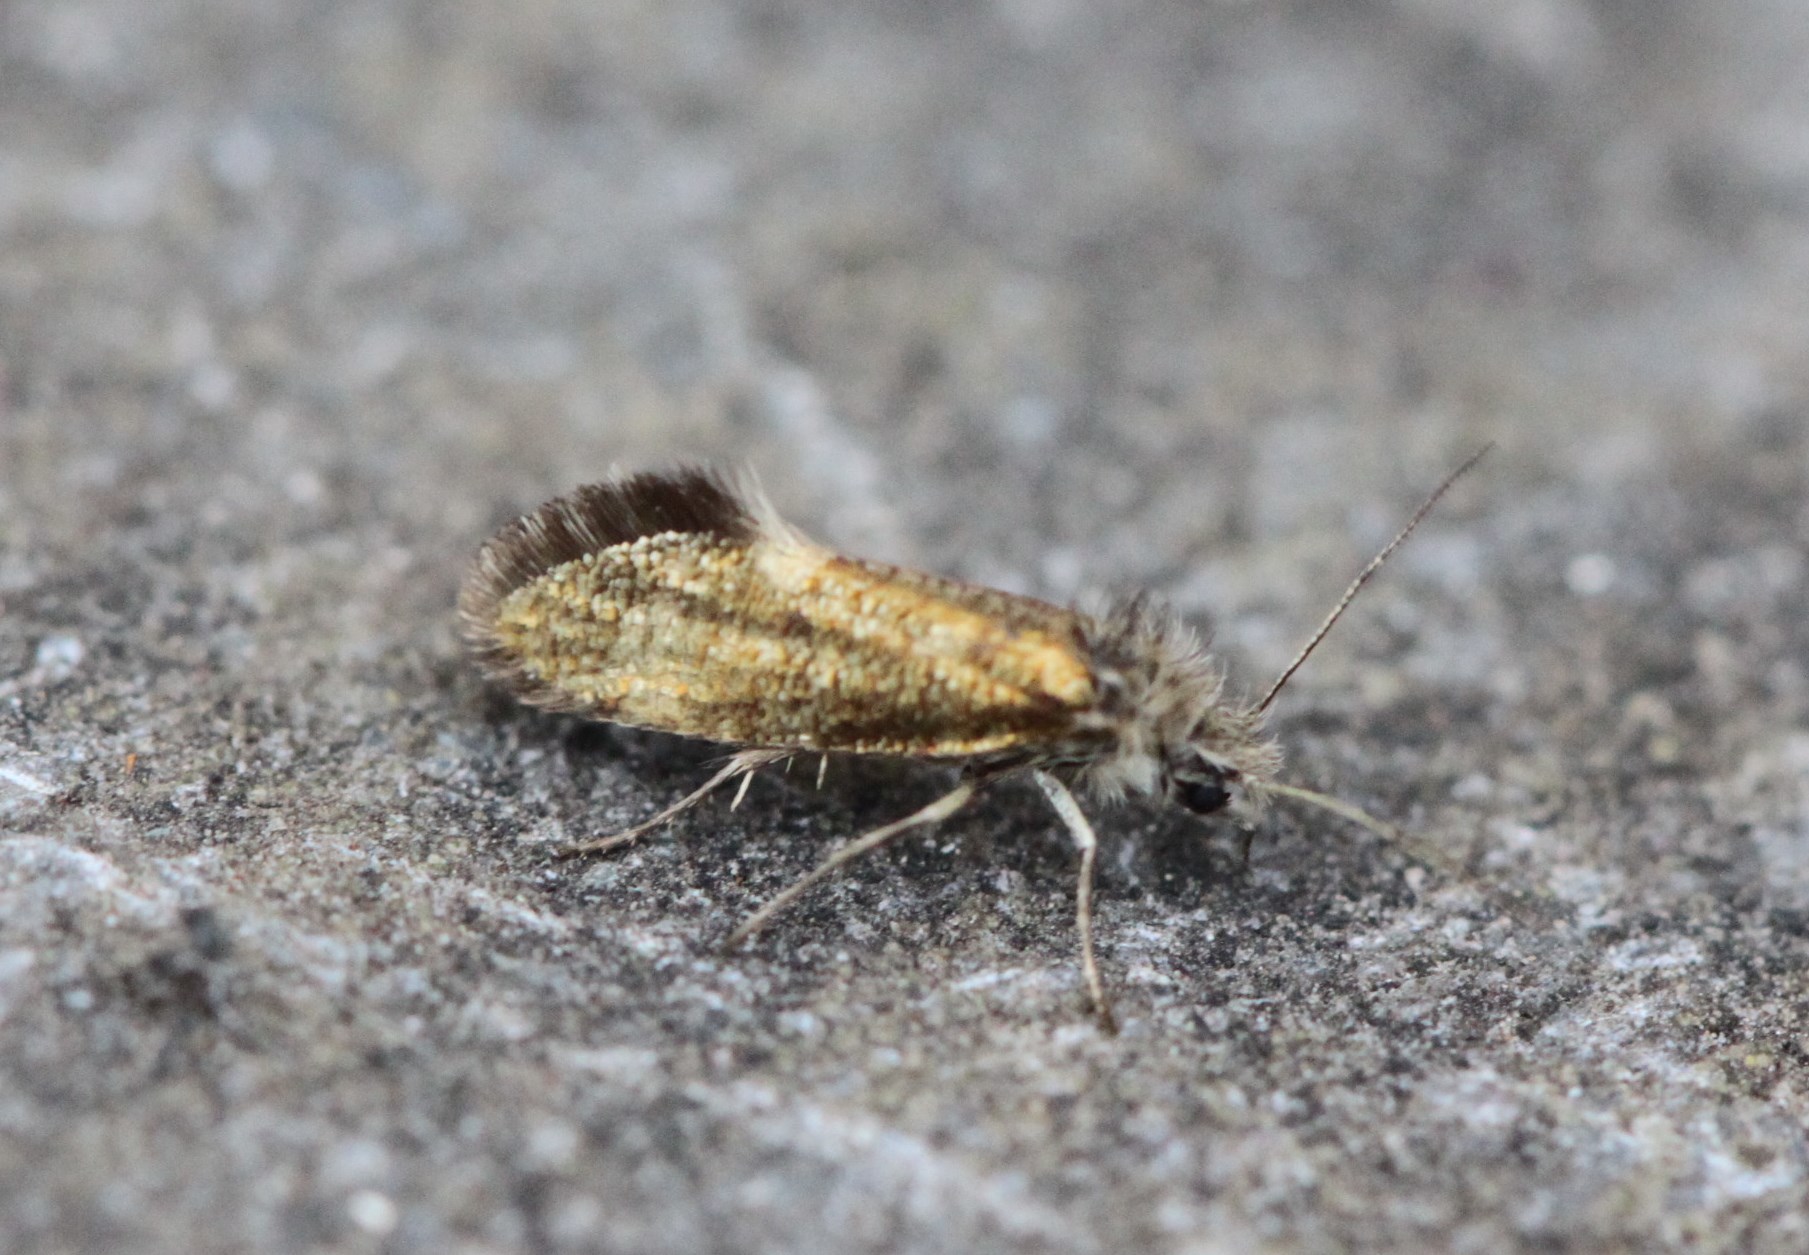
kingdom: Animalia
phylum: Arthropoda
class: Insecta
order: Lepidoptera
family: Eriocraniidae
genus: Dyseriocrania
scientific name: Dyseriocrania subpurpurella
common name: Common oak purple
